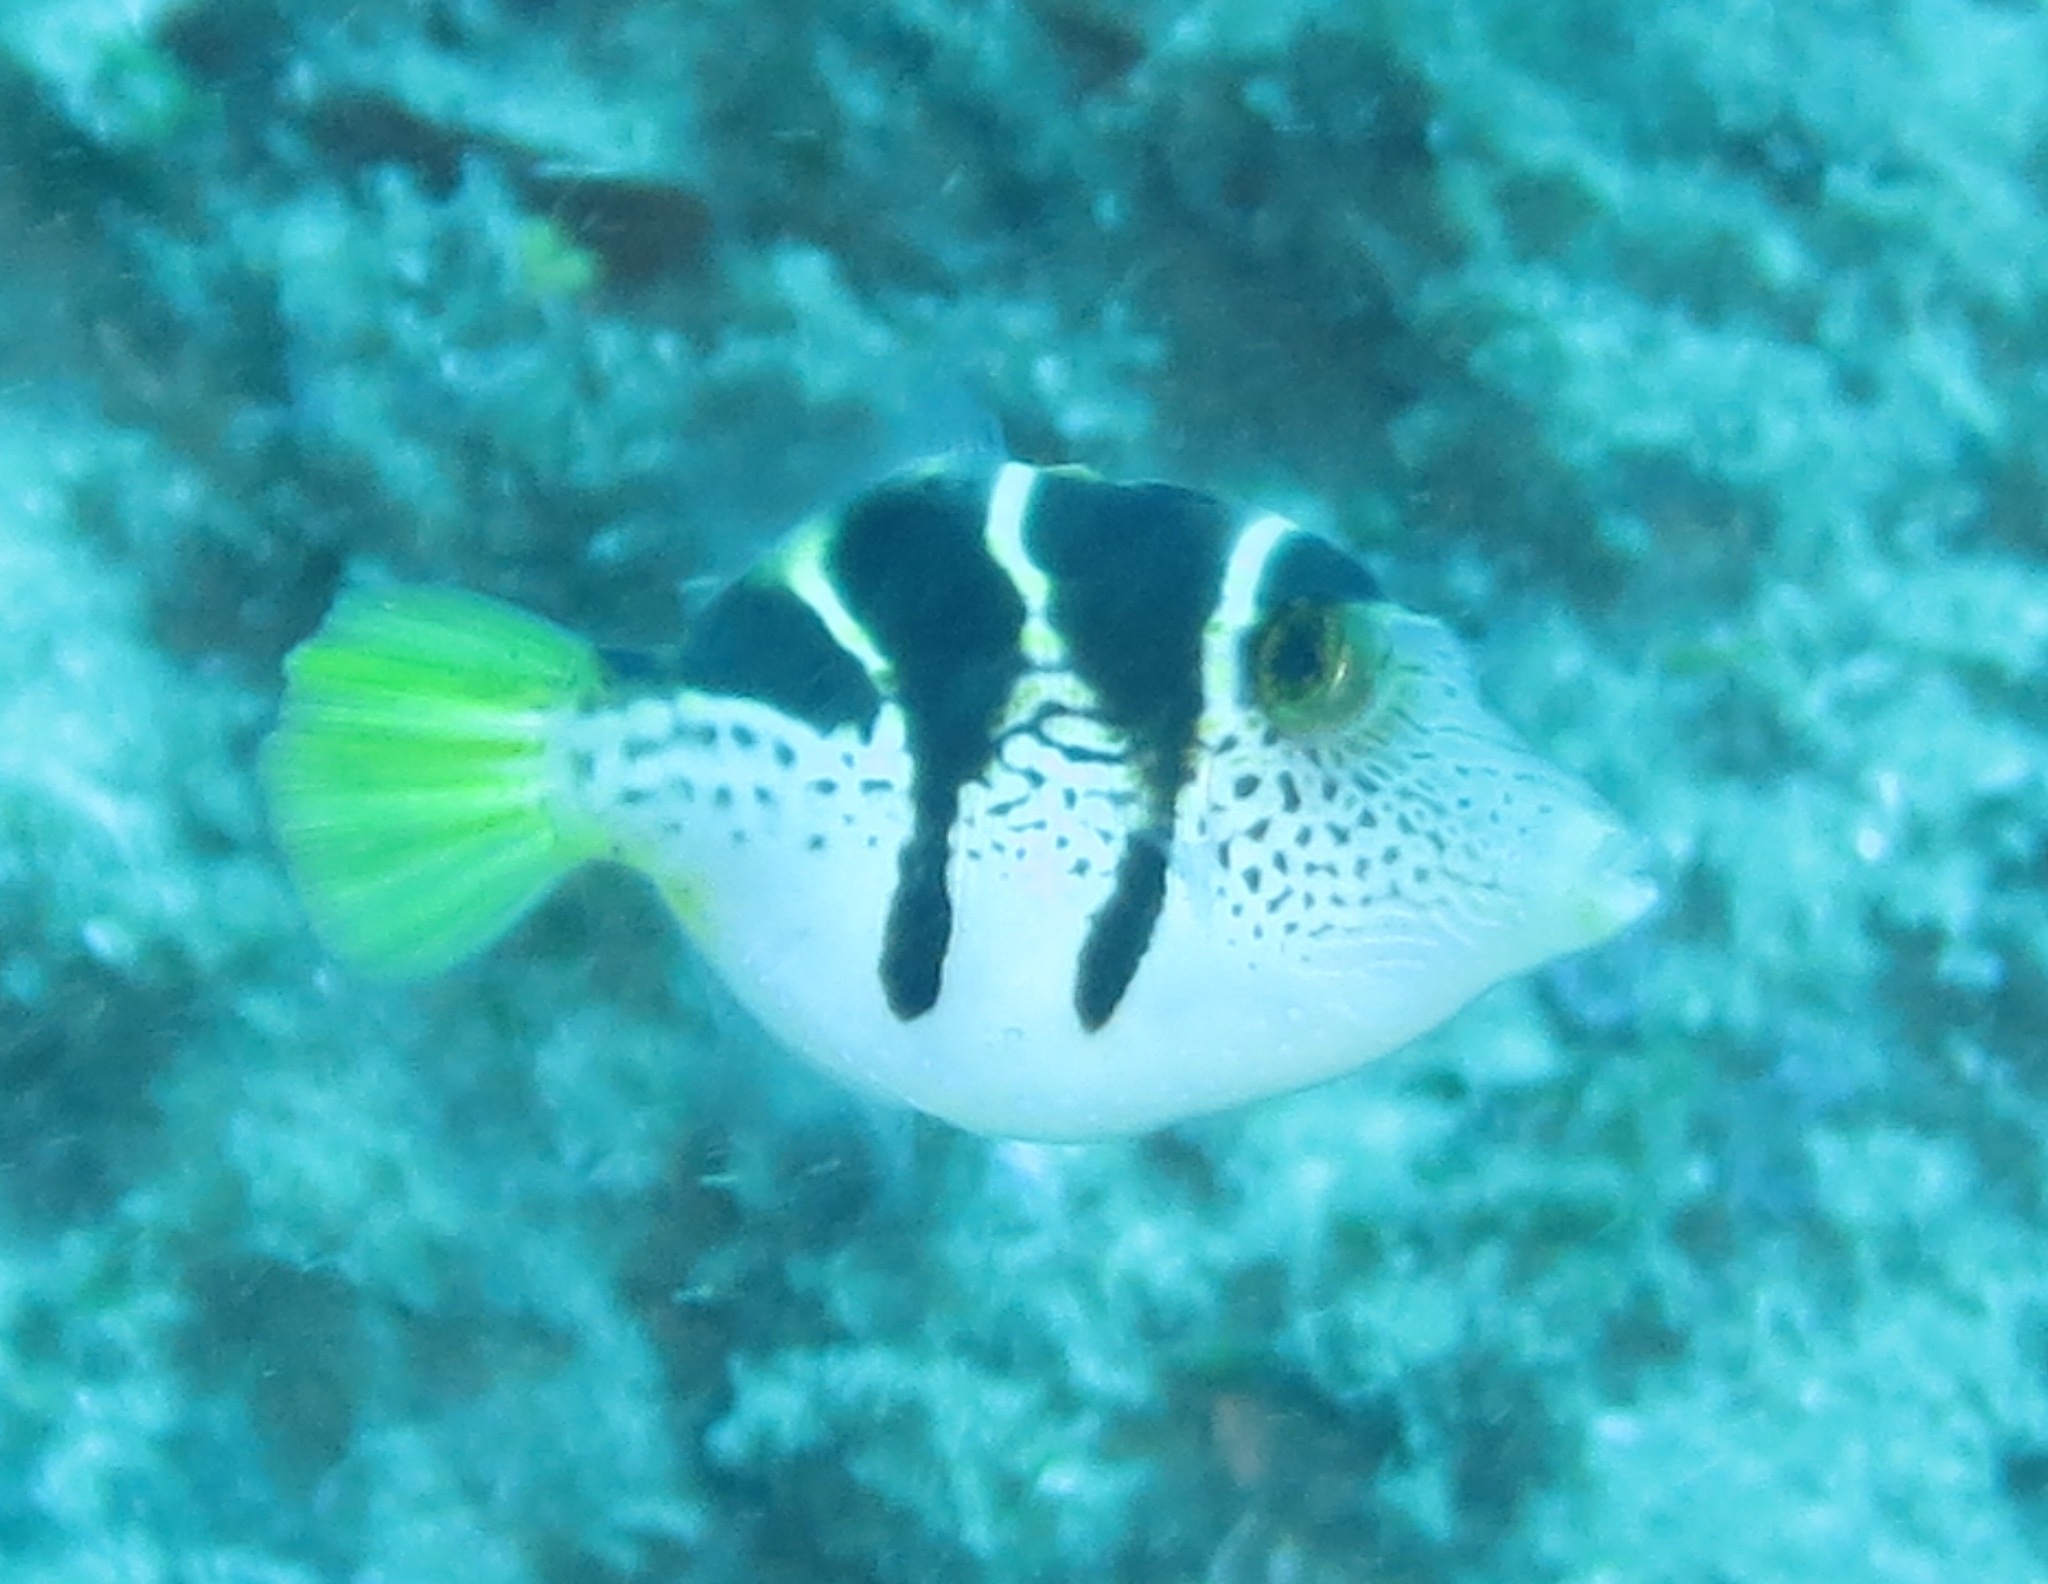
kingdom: Animalia
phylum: Chordata
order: Tetraodontiformes
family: Monacanthidae
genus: Paraluteres
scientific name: Paraluteres prionurus
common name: Black-saddled leatherjacket
